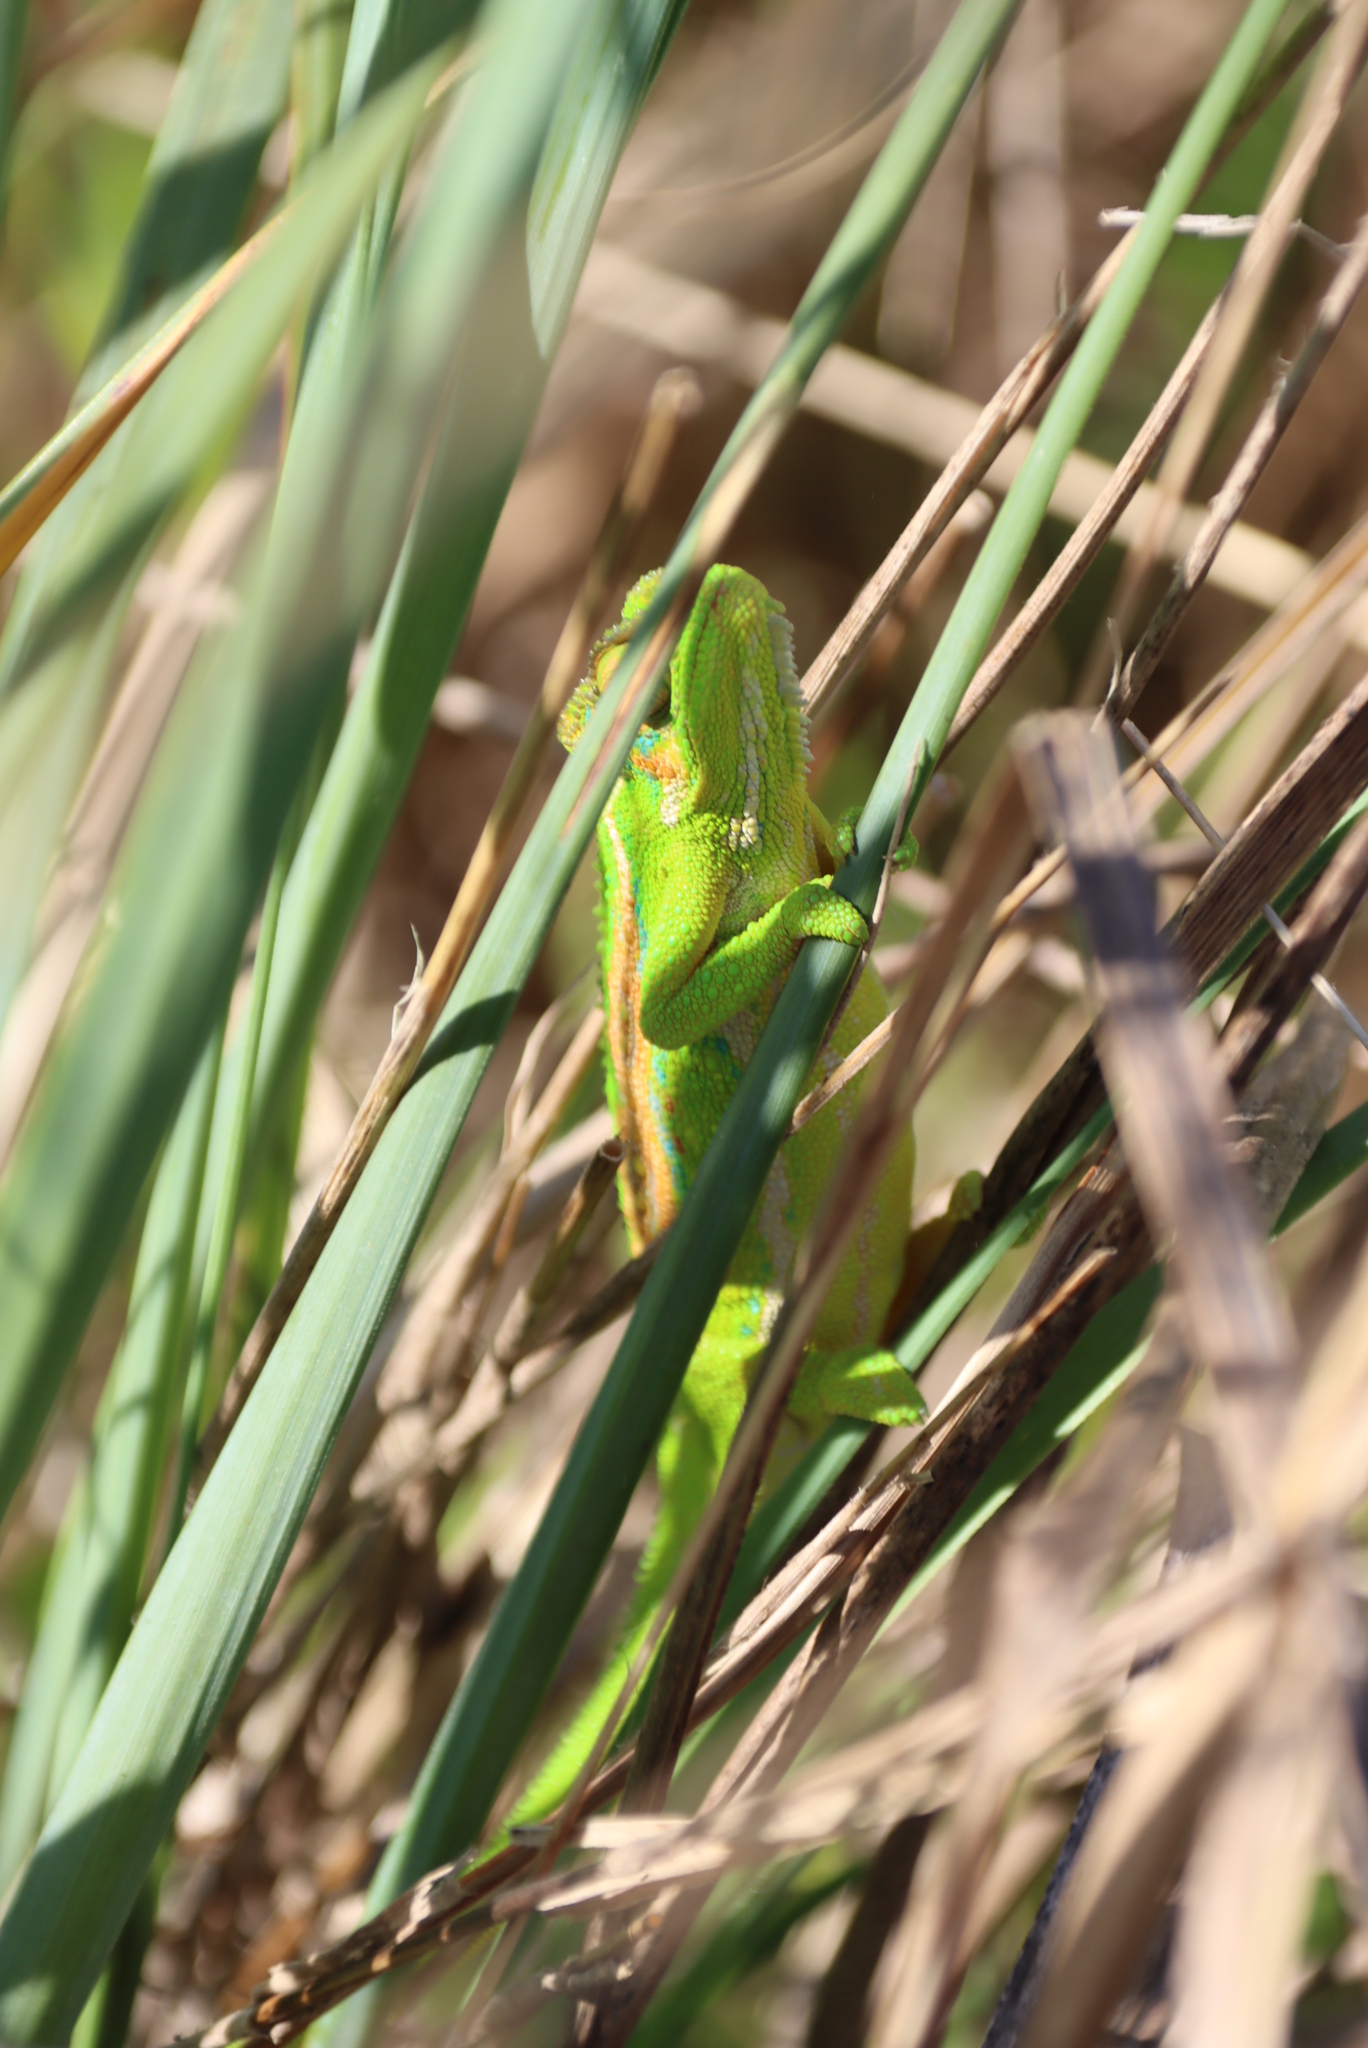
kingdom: Animalia
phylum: Chordata
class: Squamata
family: Chamaeleonidae
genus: Bradypodion
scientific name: Bradypodion pumilum
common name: Cape dwarf chameleon
